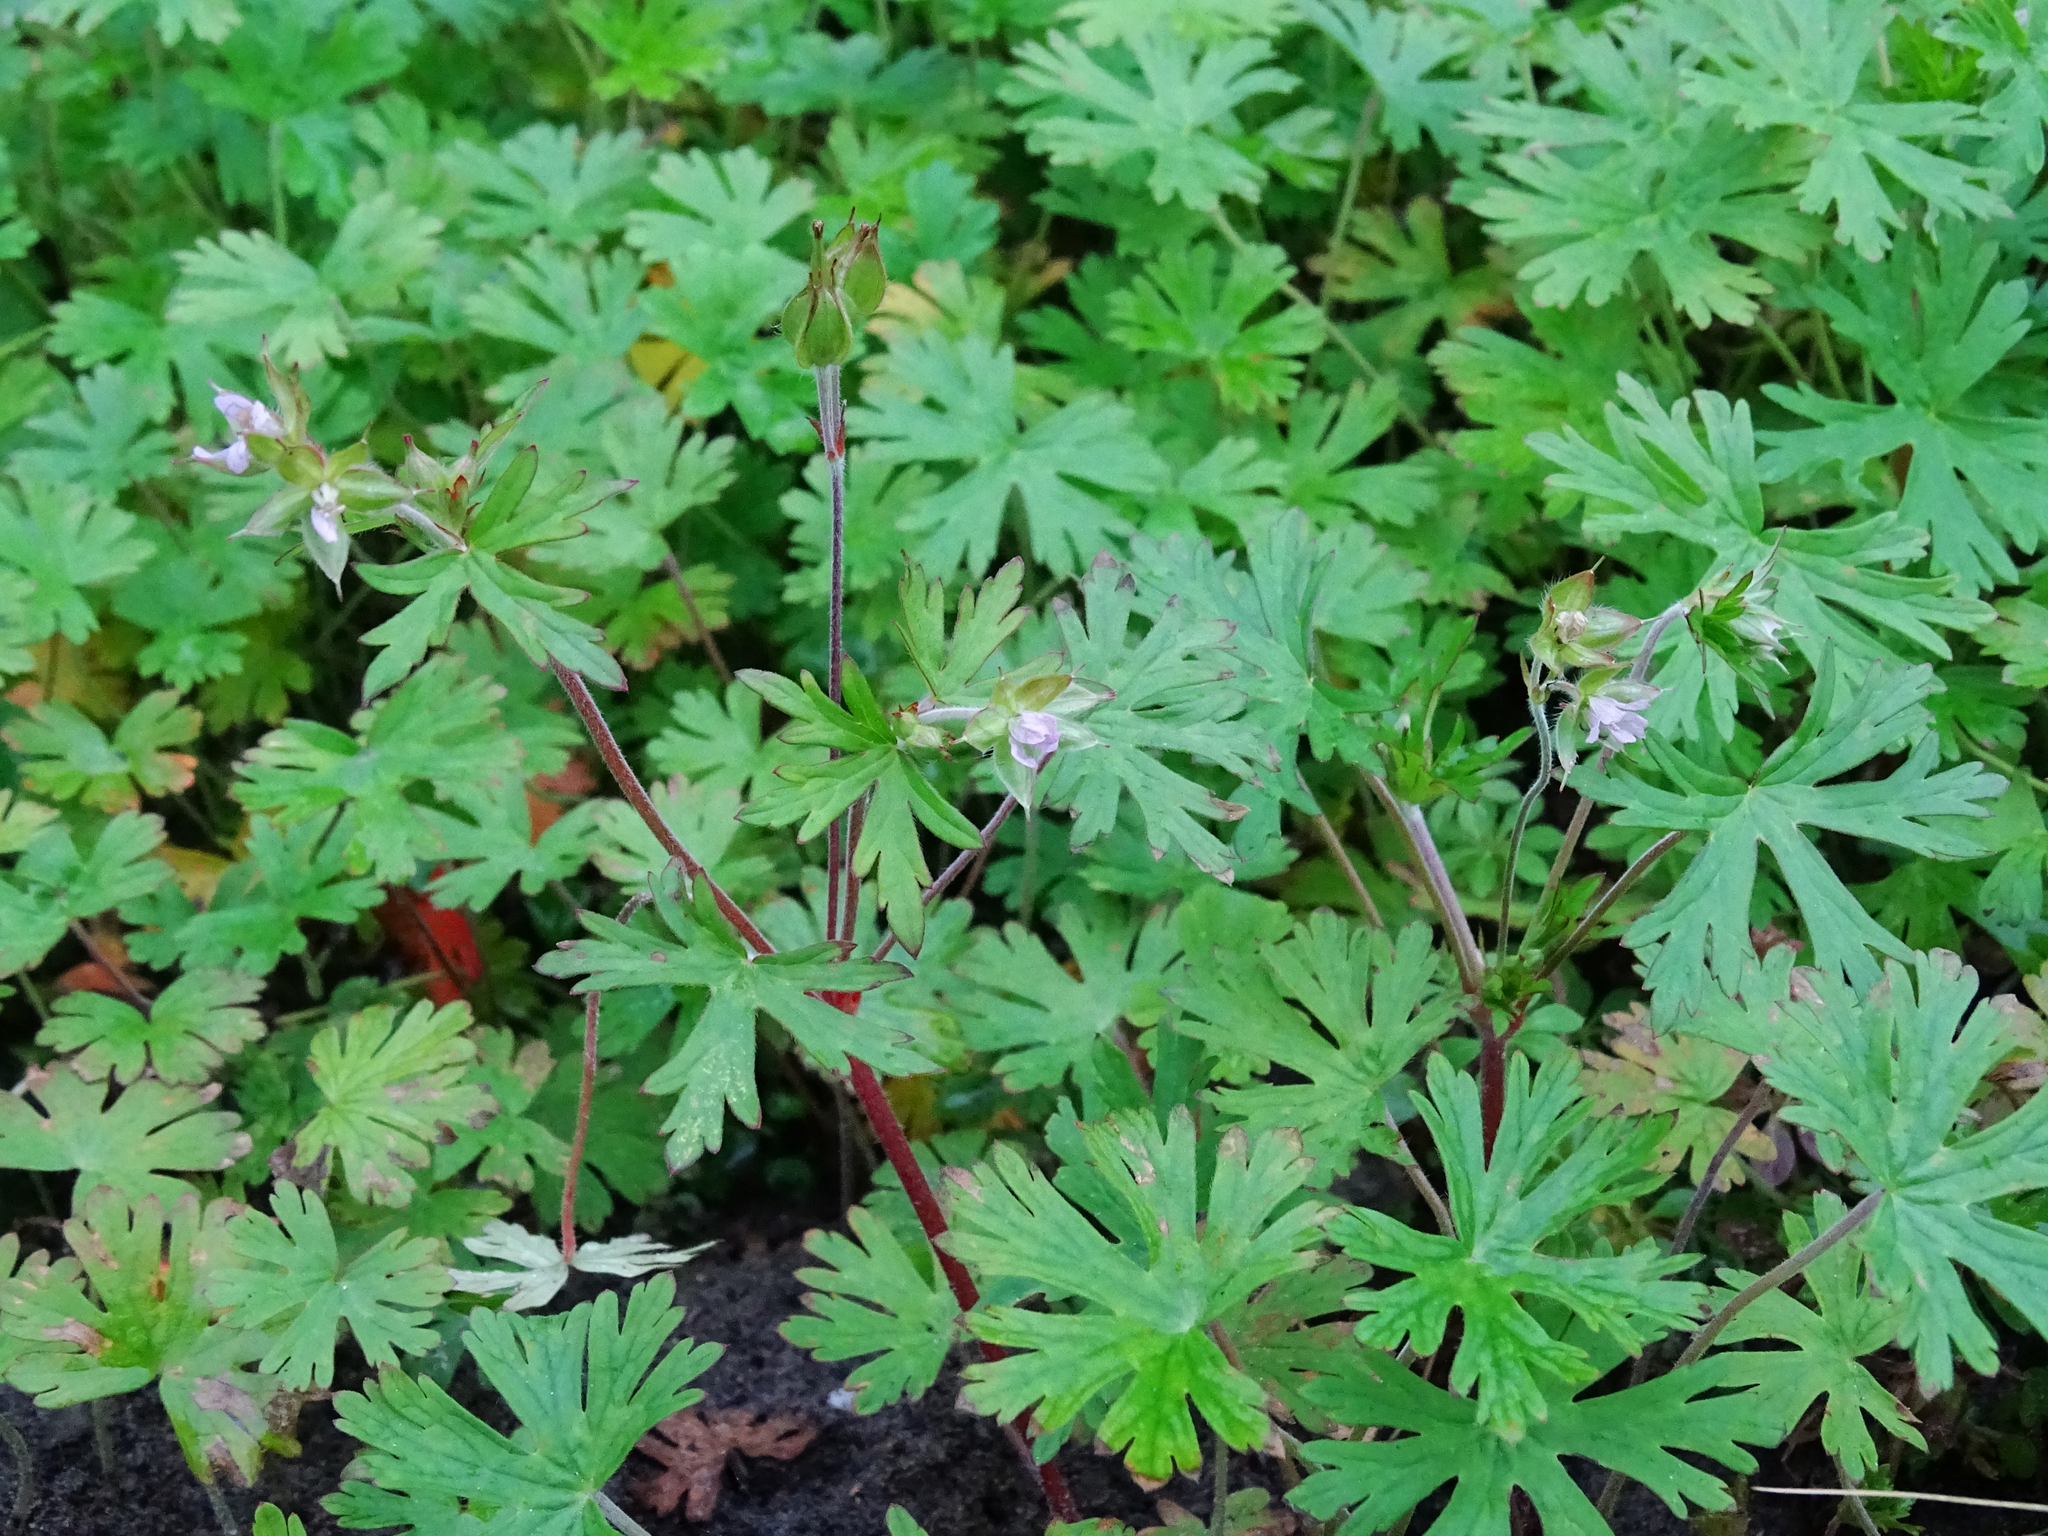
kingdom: Plantae
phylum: Tracheophyta
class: Magnoliopsida
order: Geraniales
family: Geraniaceae
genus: Geranium
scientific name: Geranium carolinianum
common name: Carolina crane's-bill
